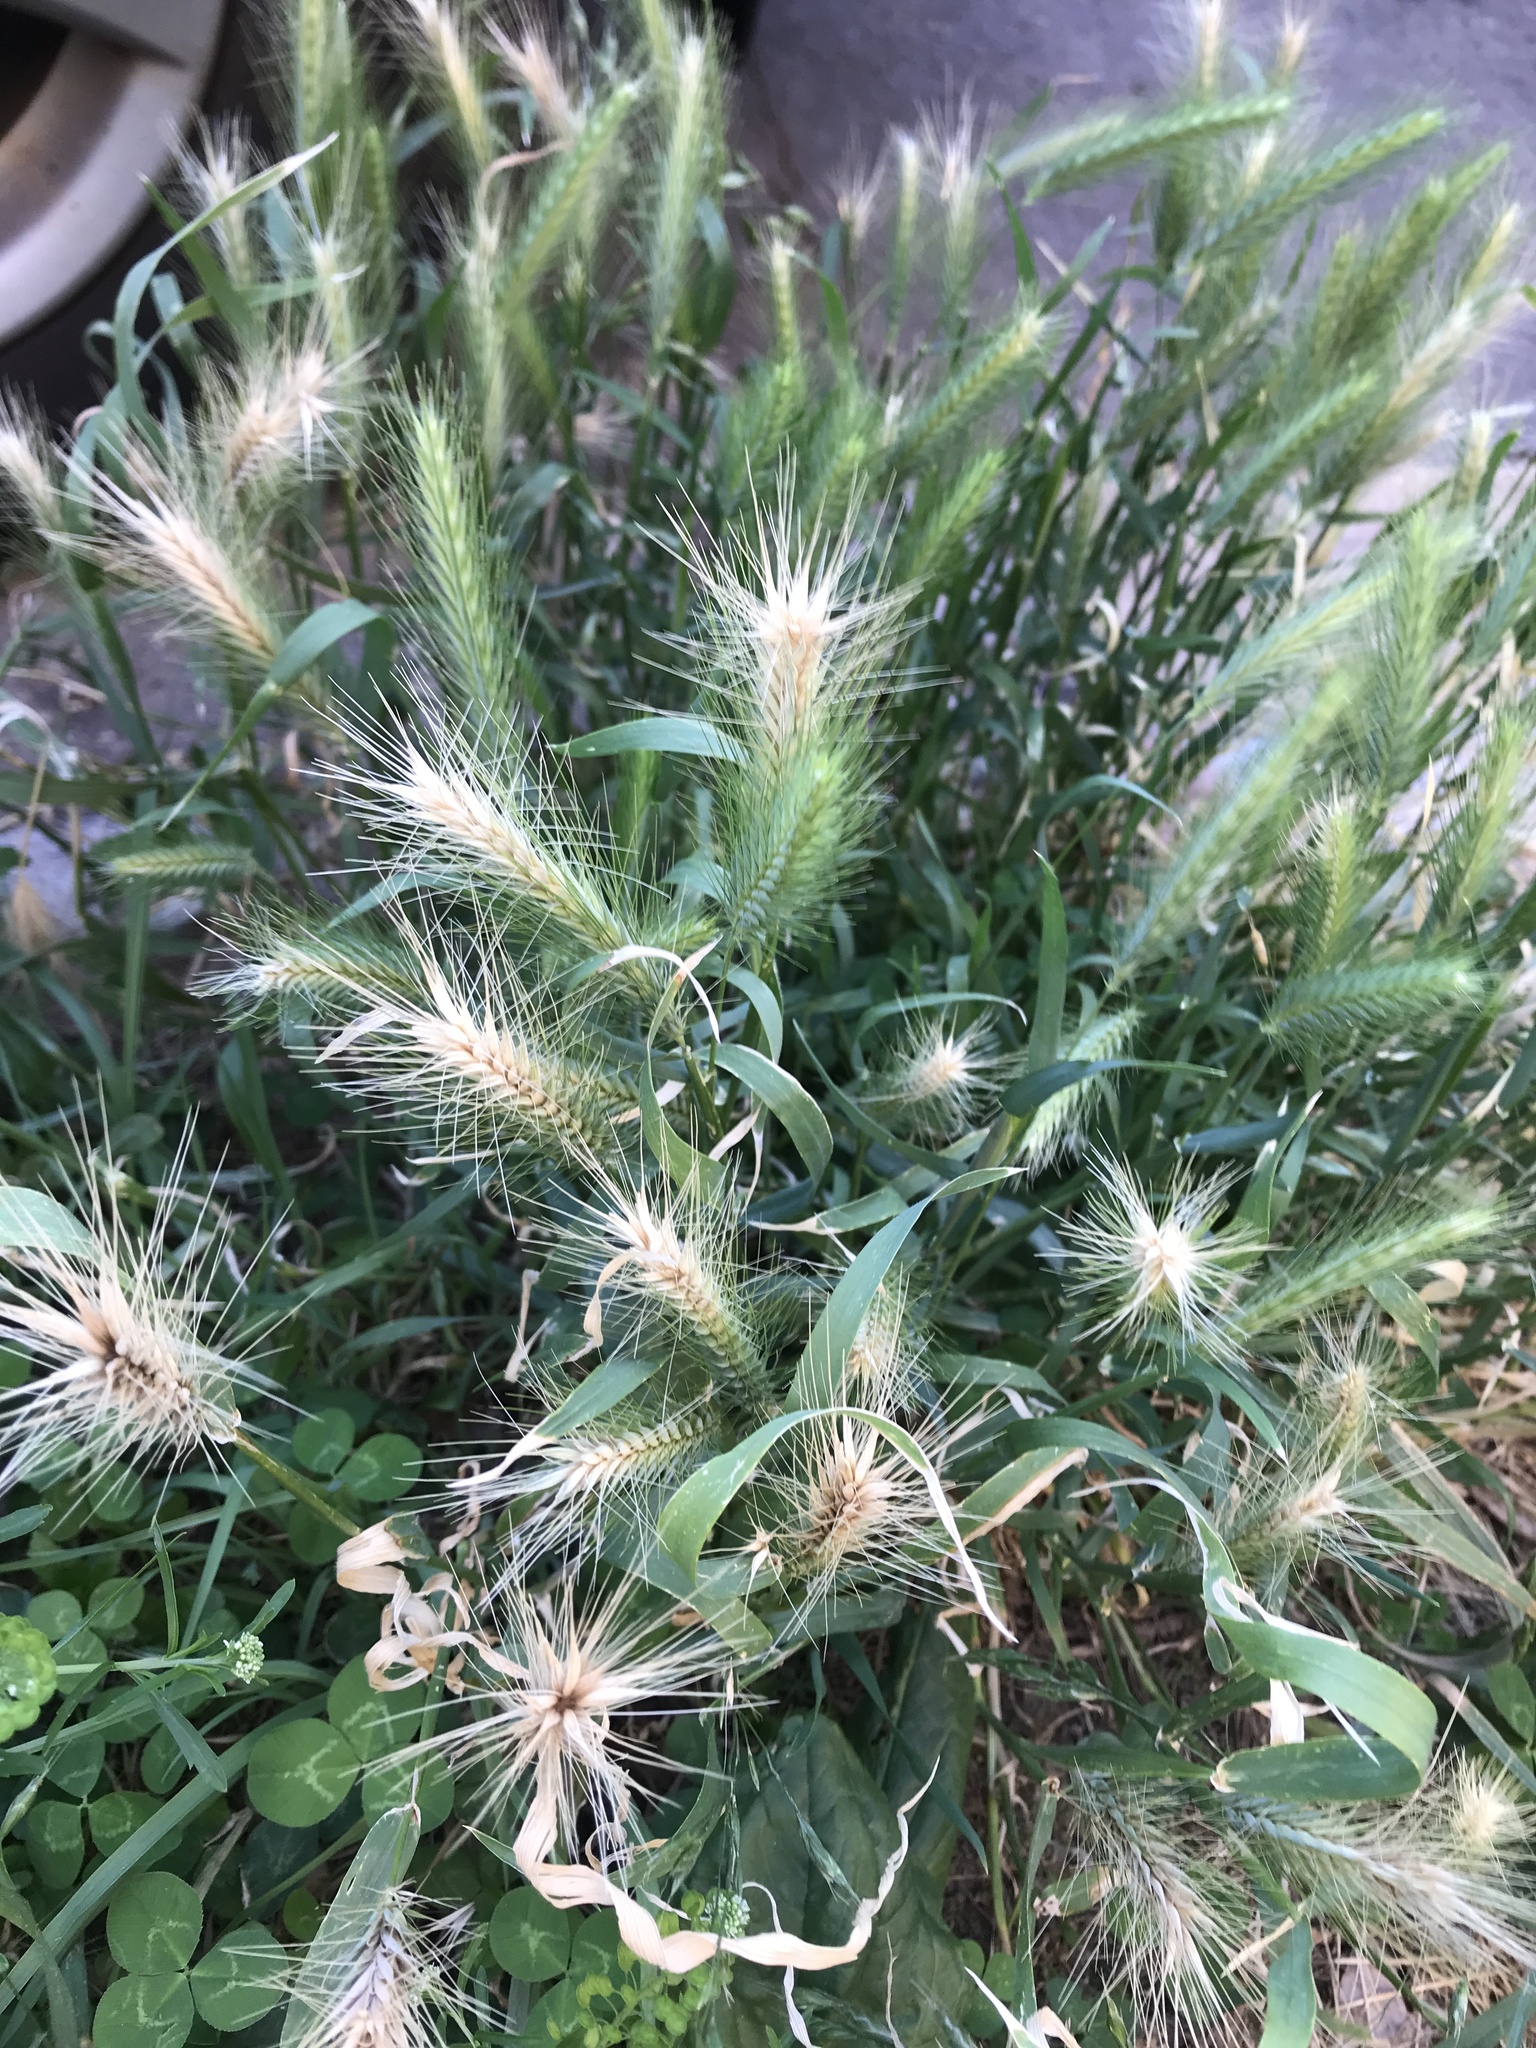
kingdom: Plantae
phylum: Tracheophyta
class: Liliopsida
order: Poales
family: Poaceae
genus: Hordeum
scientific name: Hordeum murinum
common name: Wall barley
